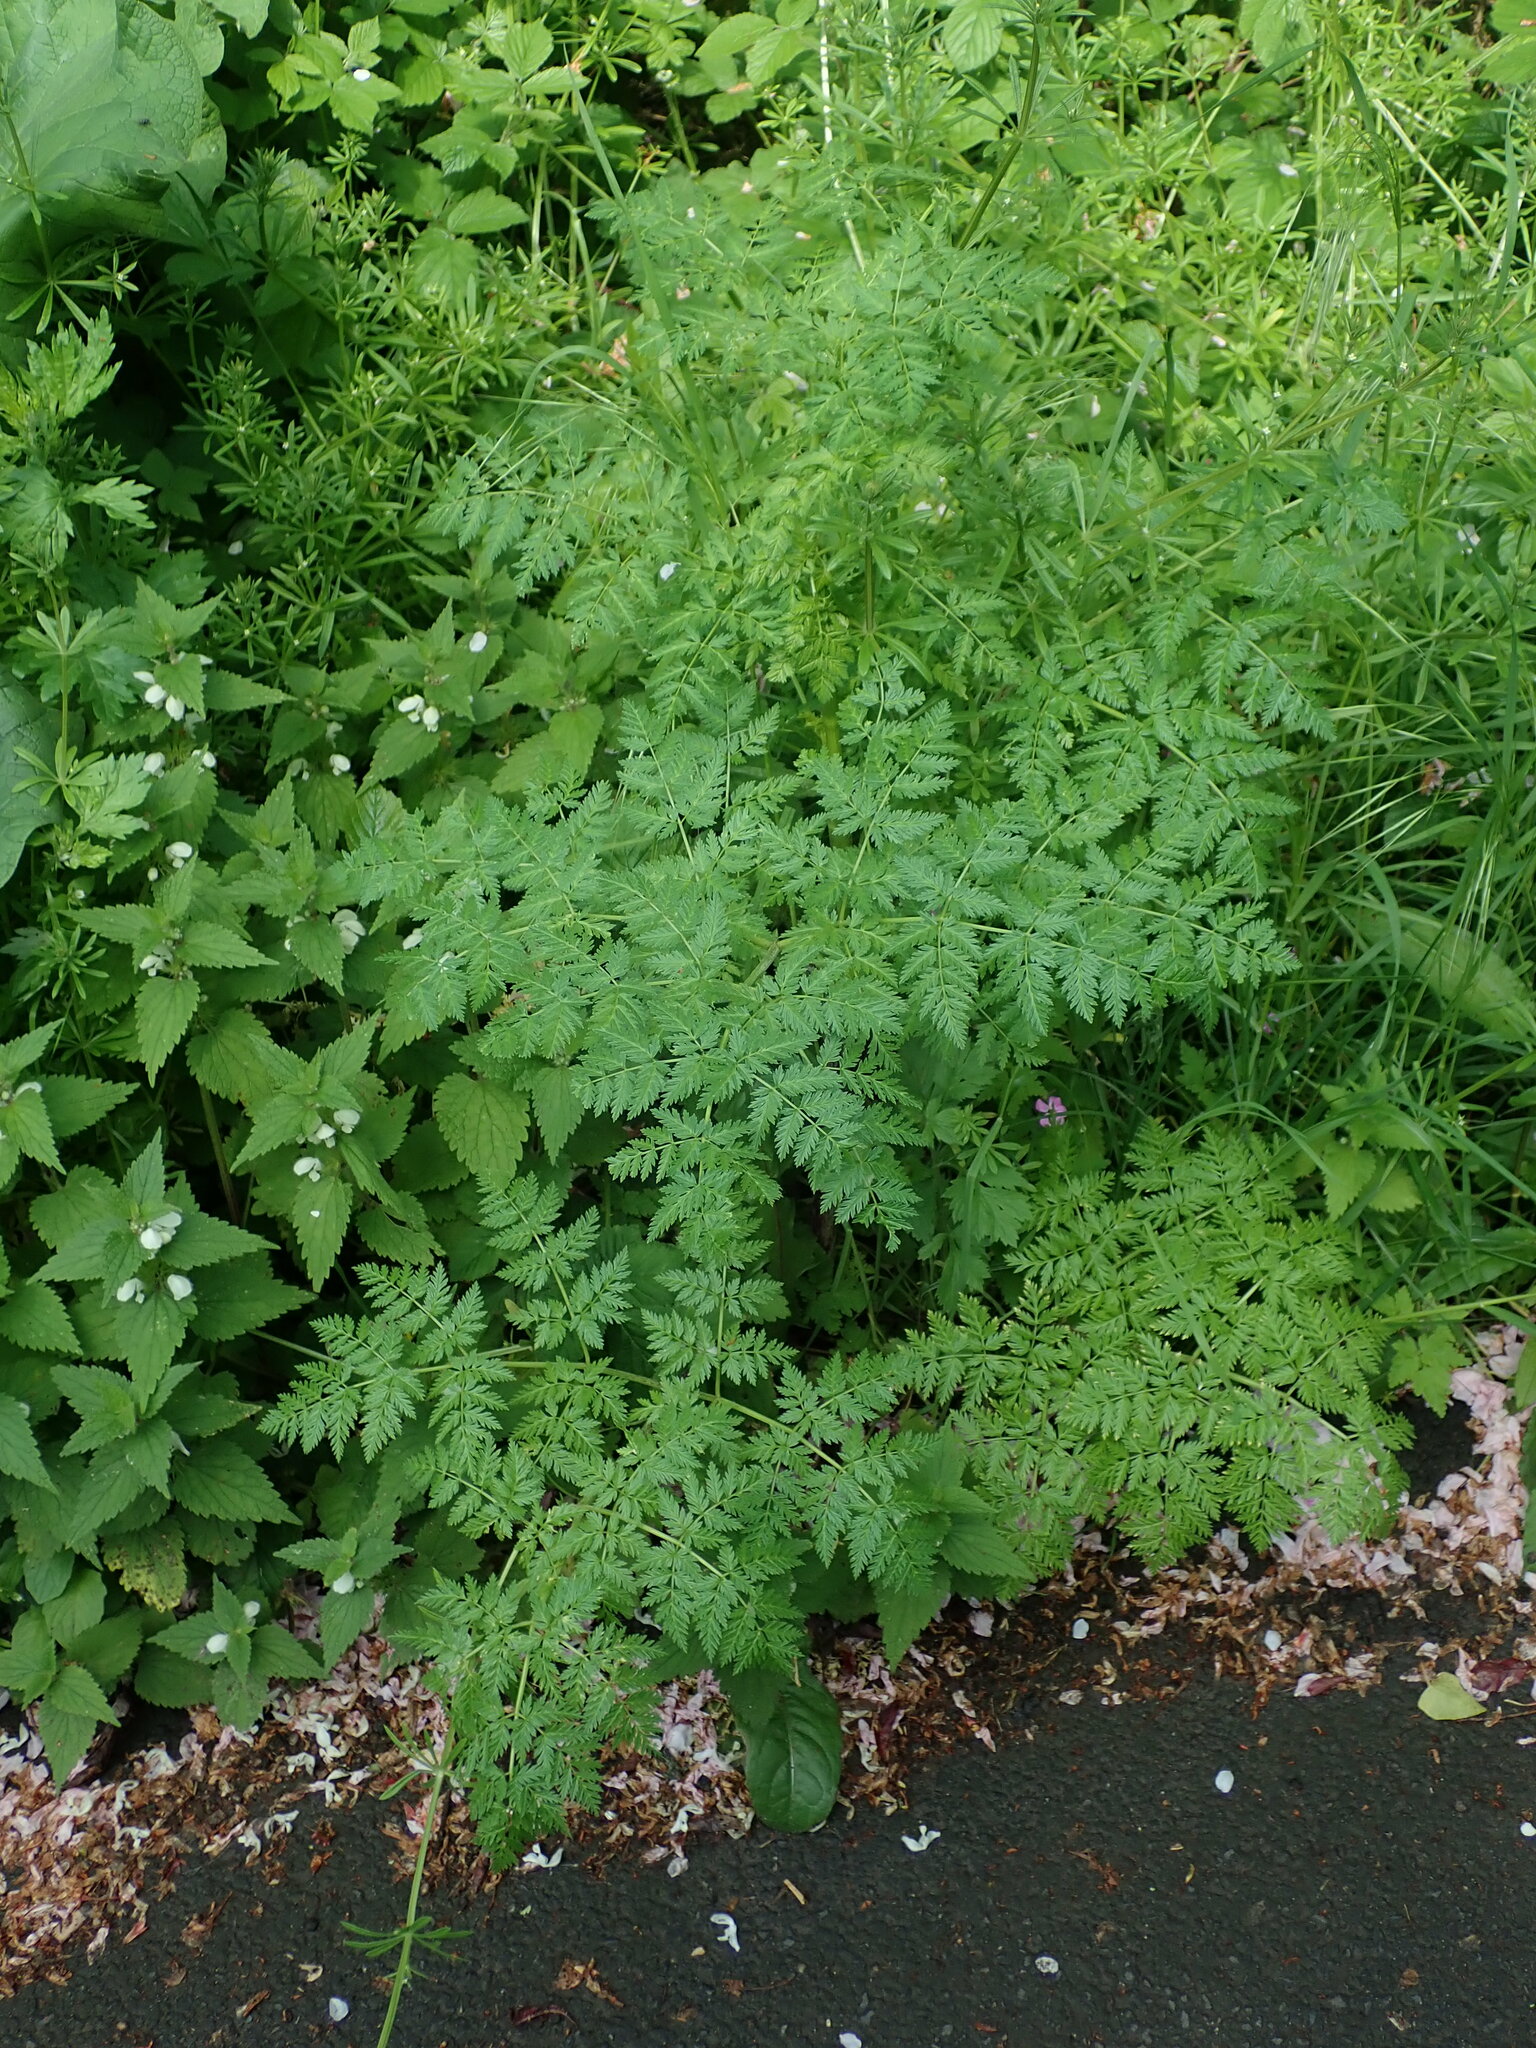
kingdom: Plantae
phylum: Tracheophyta
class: Magnoliopsida
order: Apiales
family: Apiaceae
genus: Conium
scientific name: Conium maculatum
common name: Hemlock
